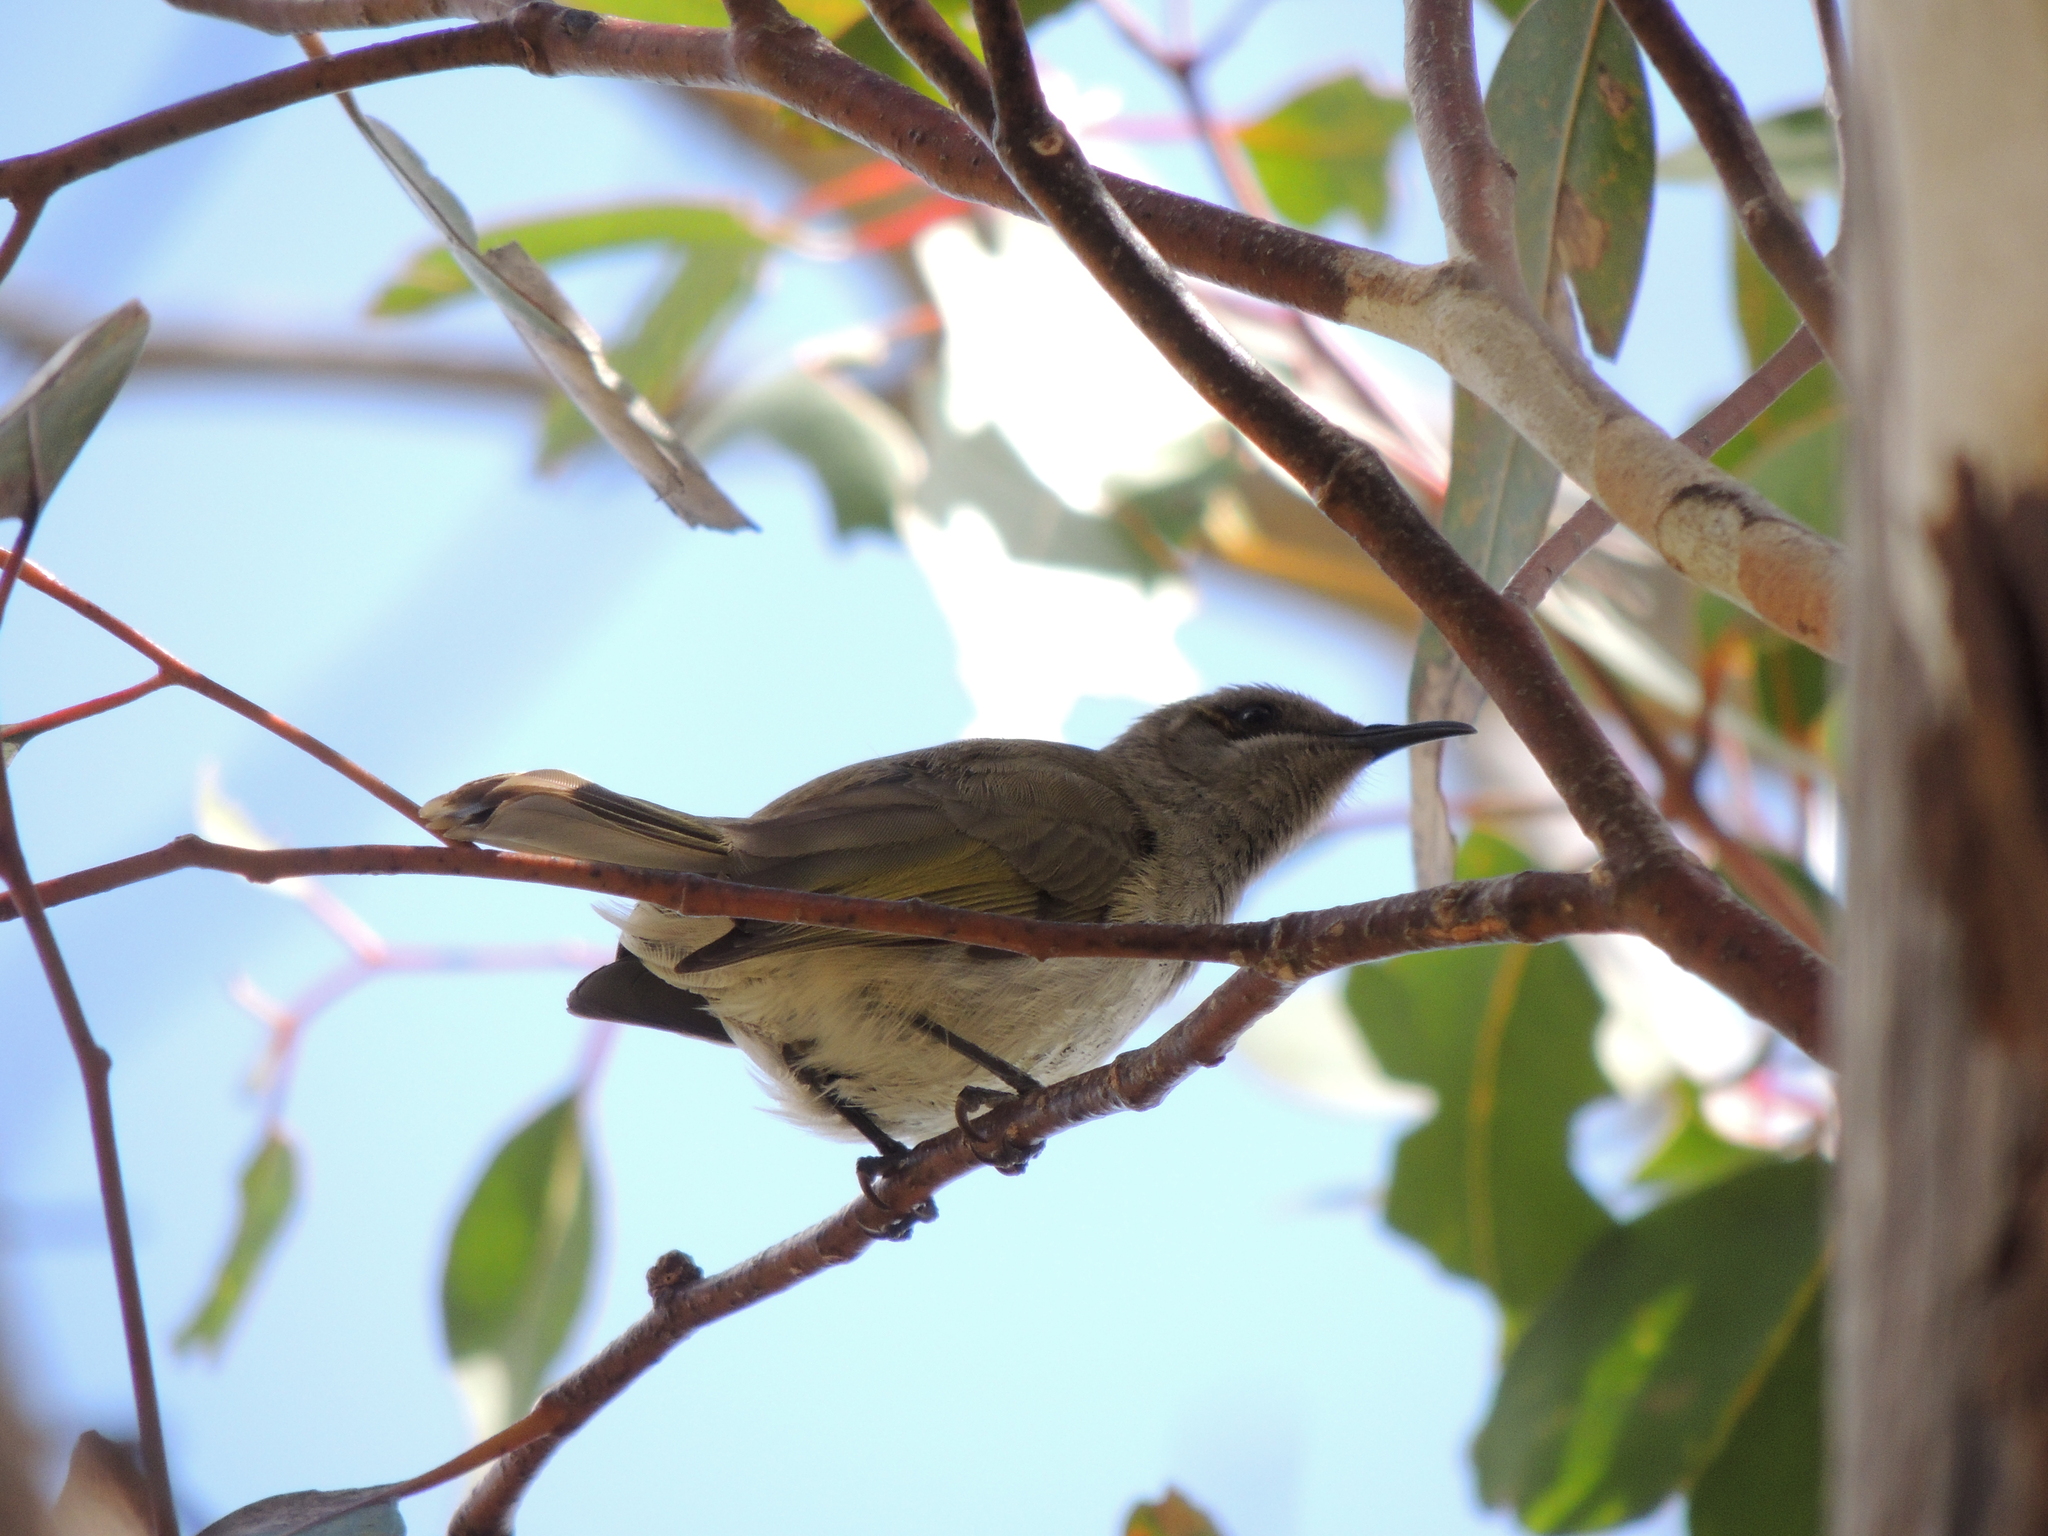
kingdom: Animalia
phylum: Chordata
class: Aves
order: Passeriformes
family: Meliphagidae
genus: Lichmera
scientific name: Lichmera indistincta
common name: Brown honeyeater
